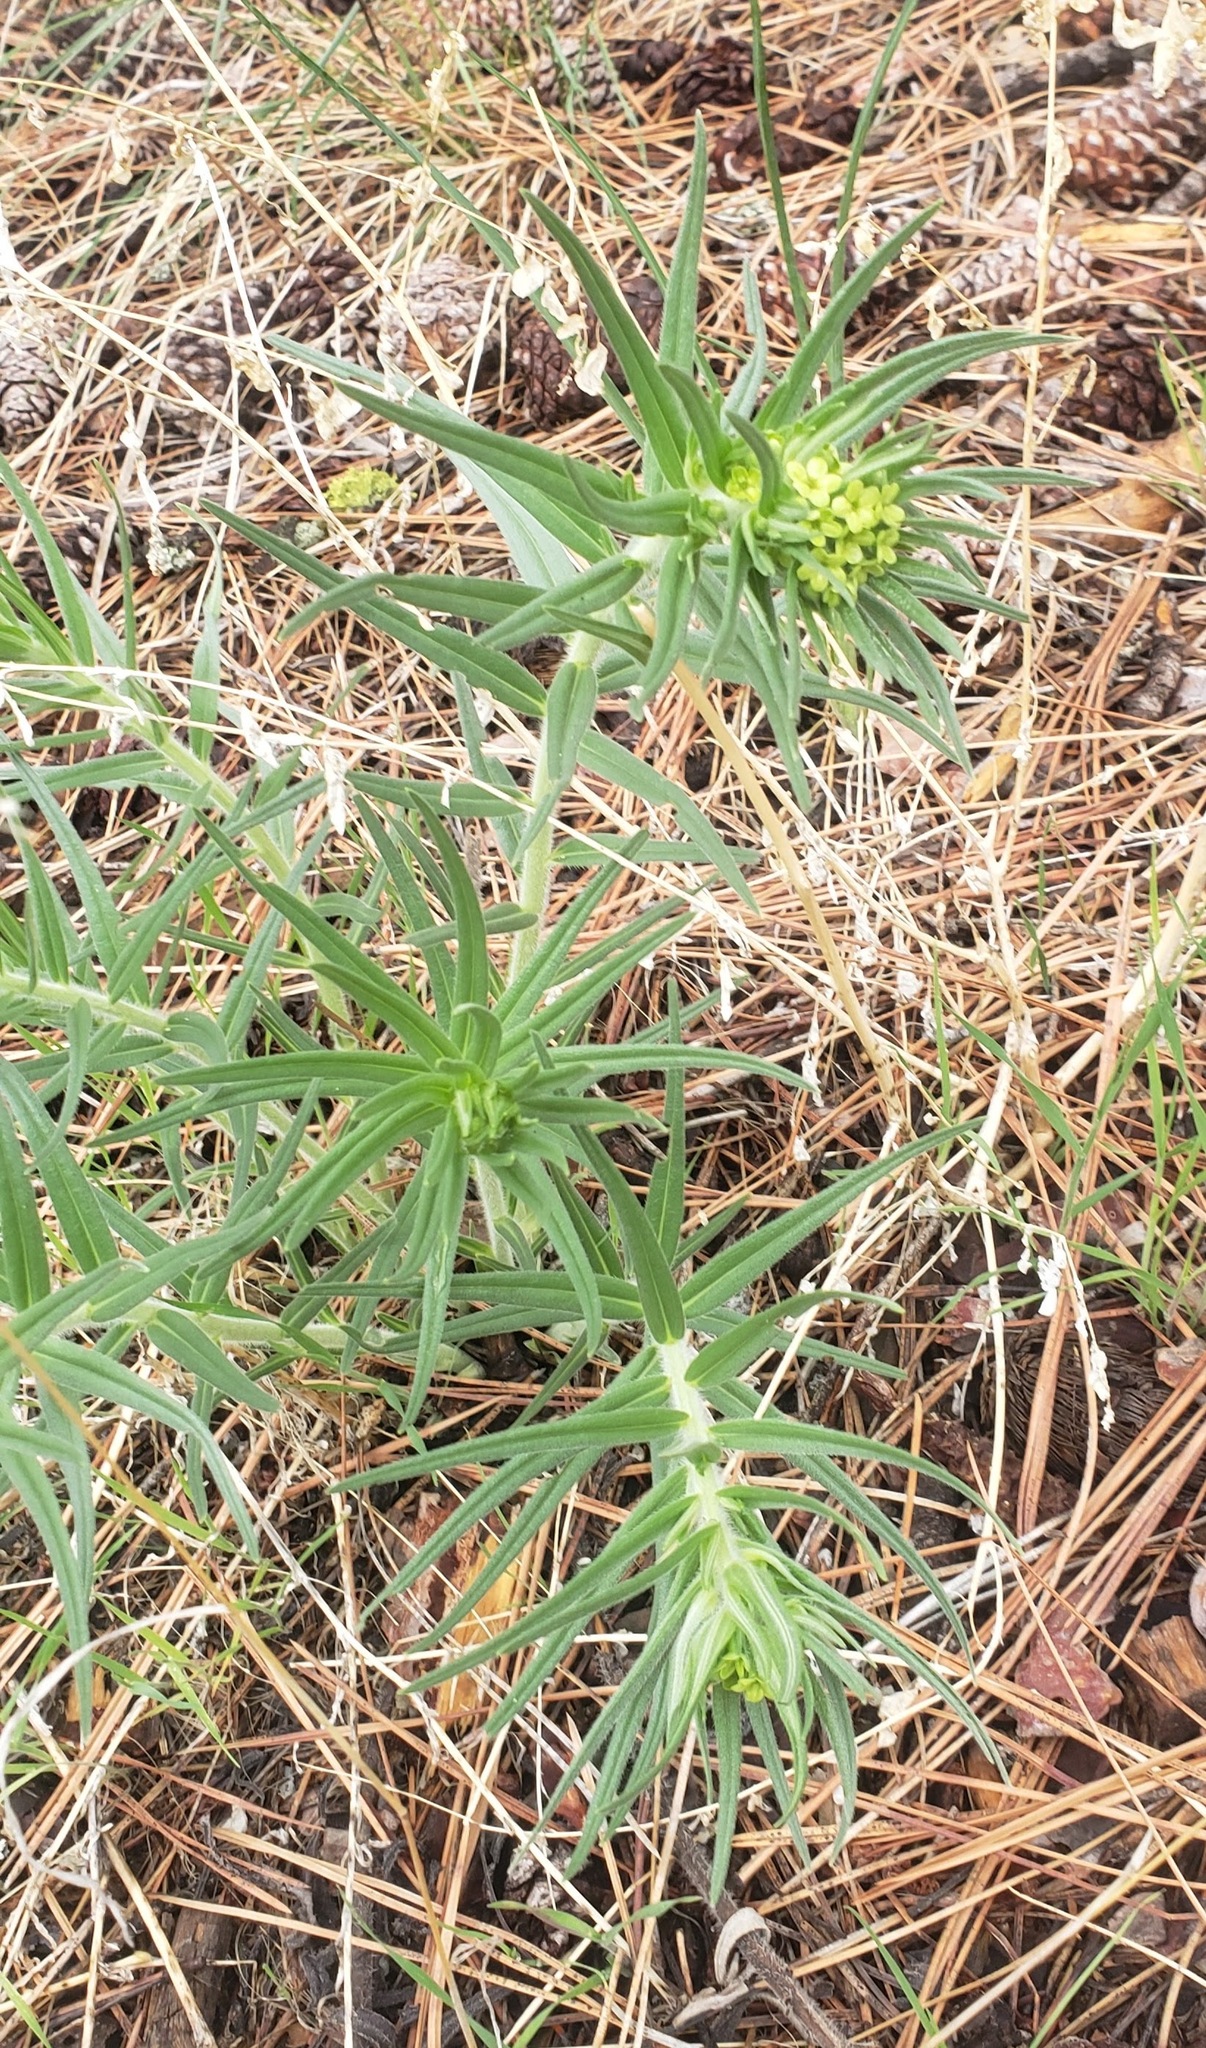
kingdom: Plantae
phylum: Tracheophyta
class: Magnoliopsida
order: Boraginales
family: Boraginaceae
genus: Lithospermum
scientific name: Lithospermum ruderale
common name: Western gromwell
